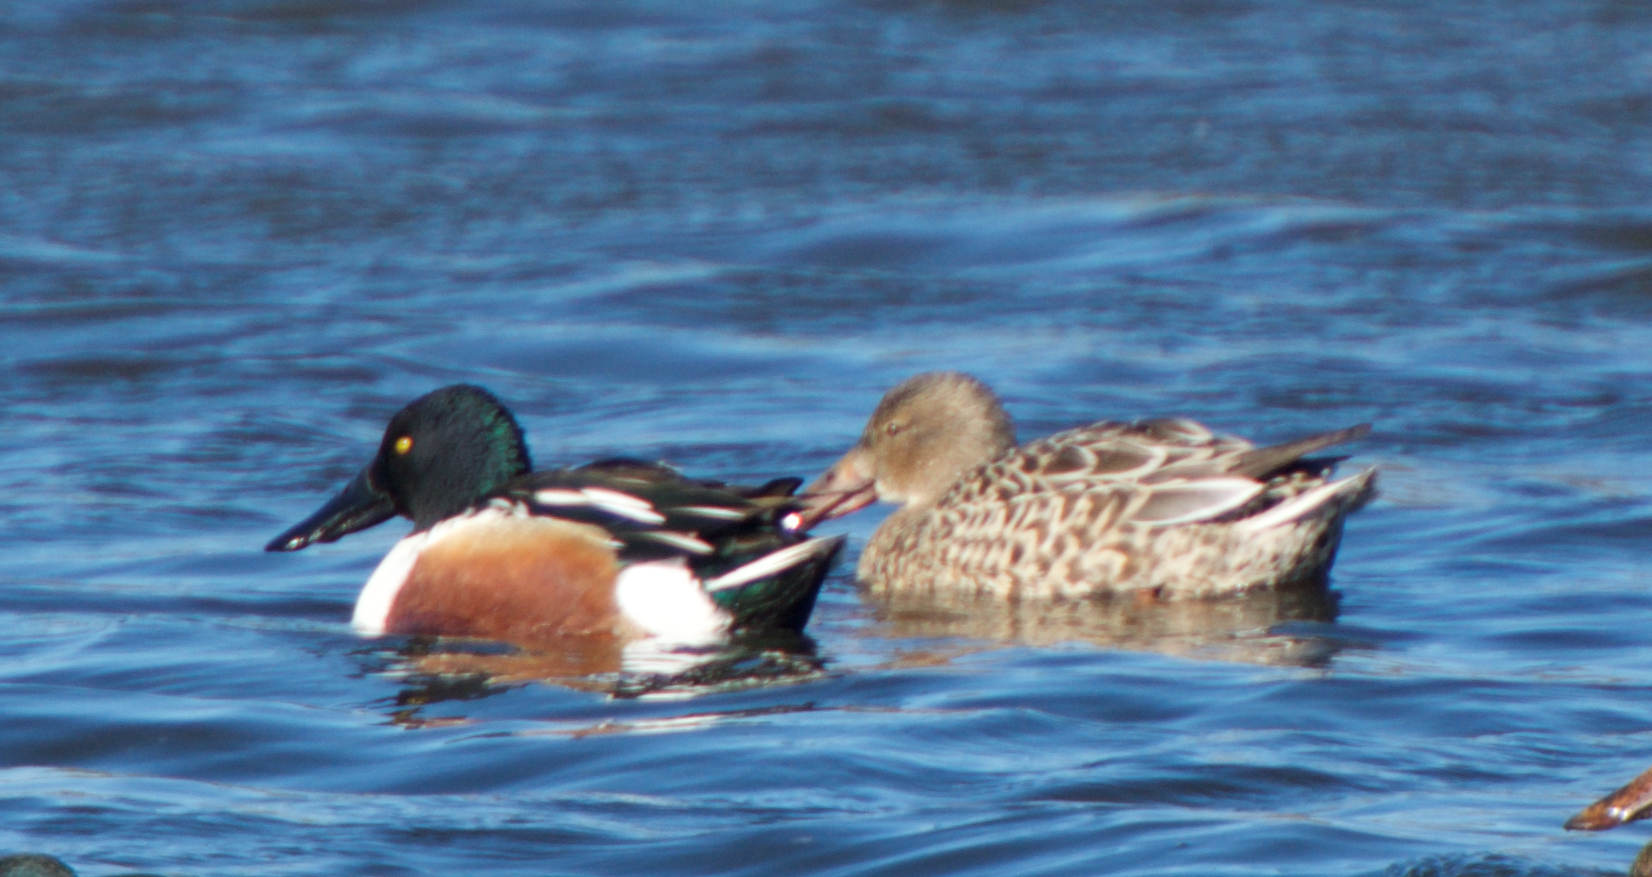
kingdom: Animalia
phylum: Chordata
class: Aves
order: Anseriformes
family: Anatidae
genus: Spatula
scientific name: Spatula clypeata
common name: Northern shoveler
